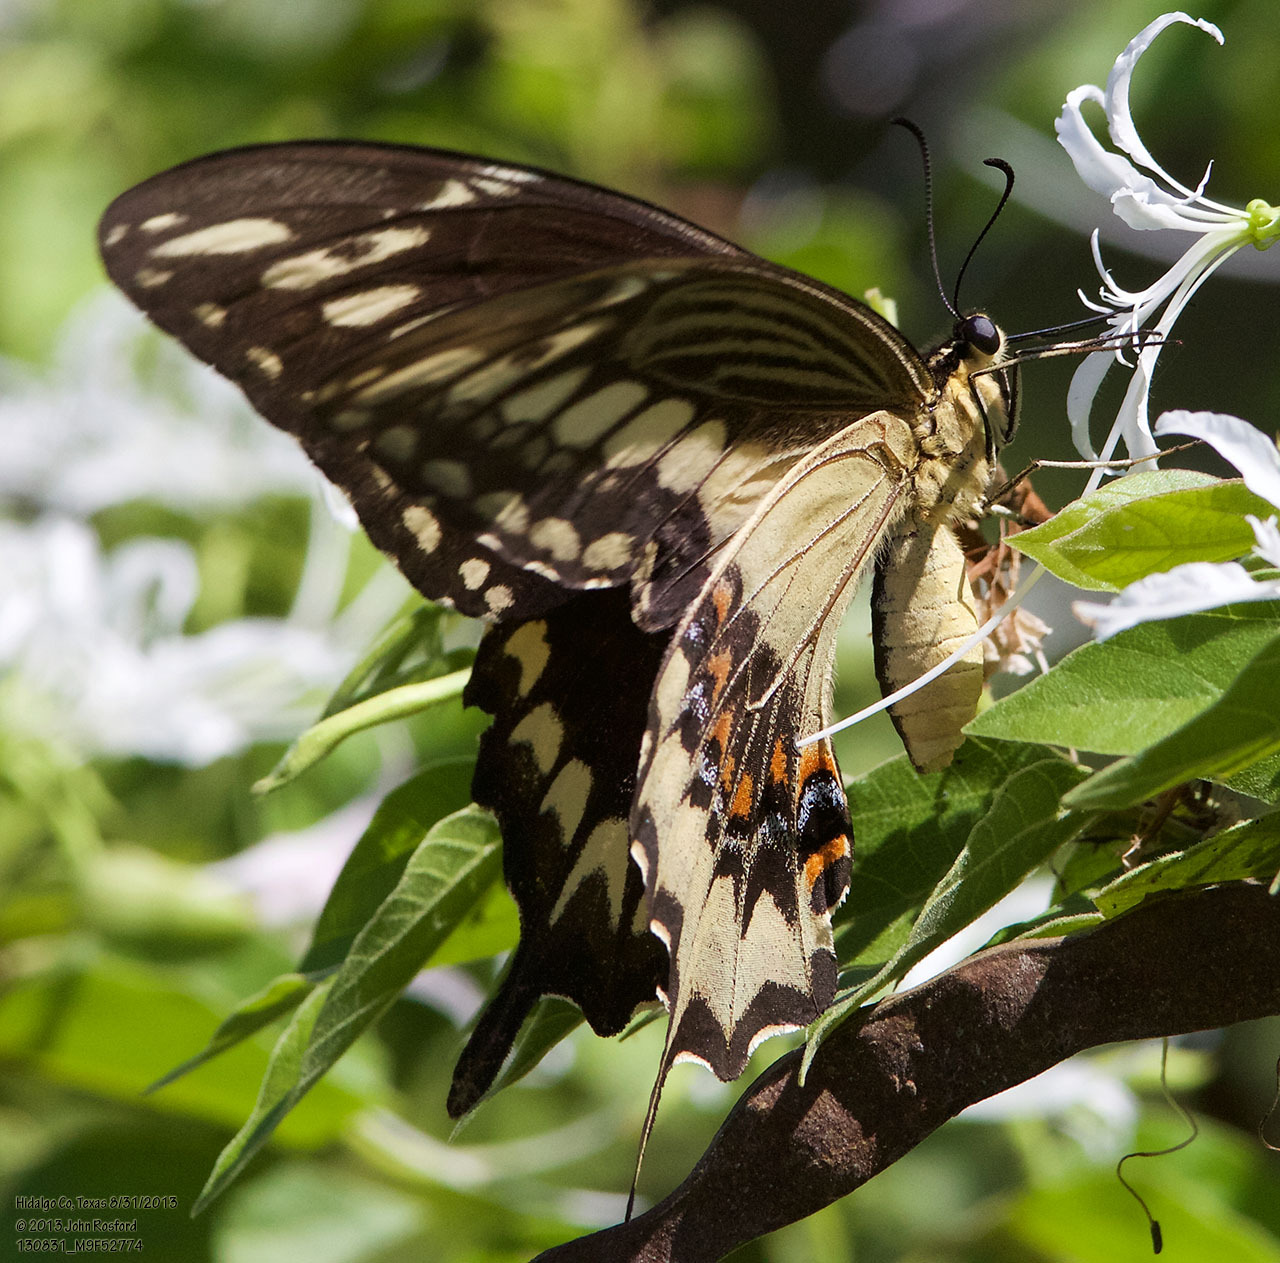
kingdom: Animalia
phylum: Arthropoda
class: Insecta
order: Lepidoptera
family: Papilionidae
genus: Papilio
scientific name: Papilio ornythion
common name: Ornythion swallowtail
